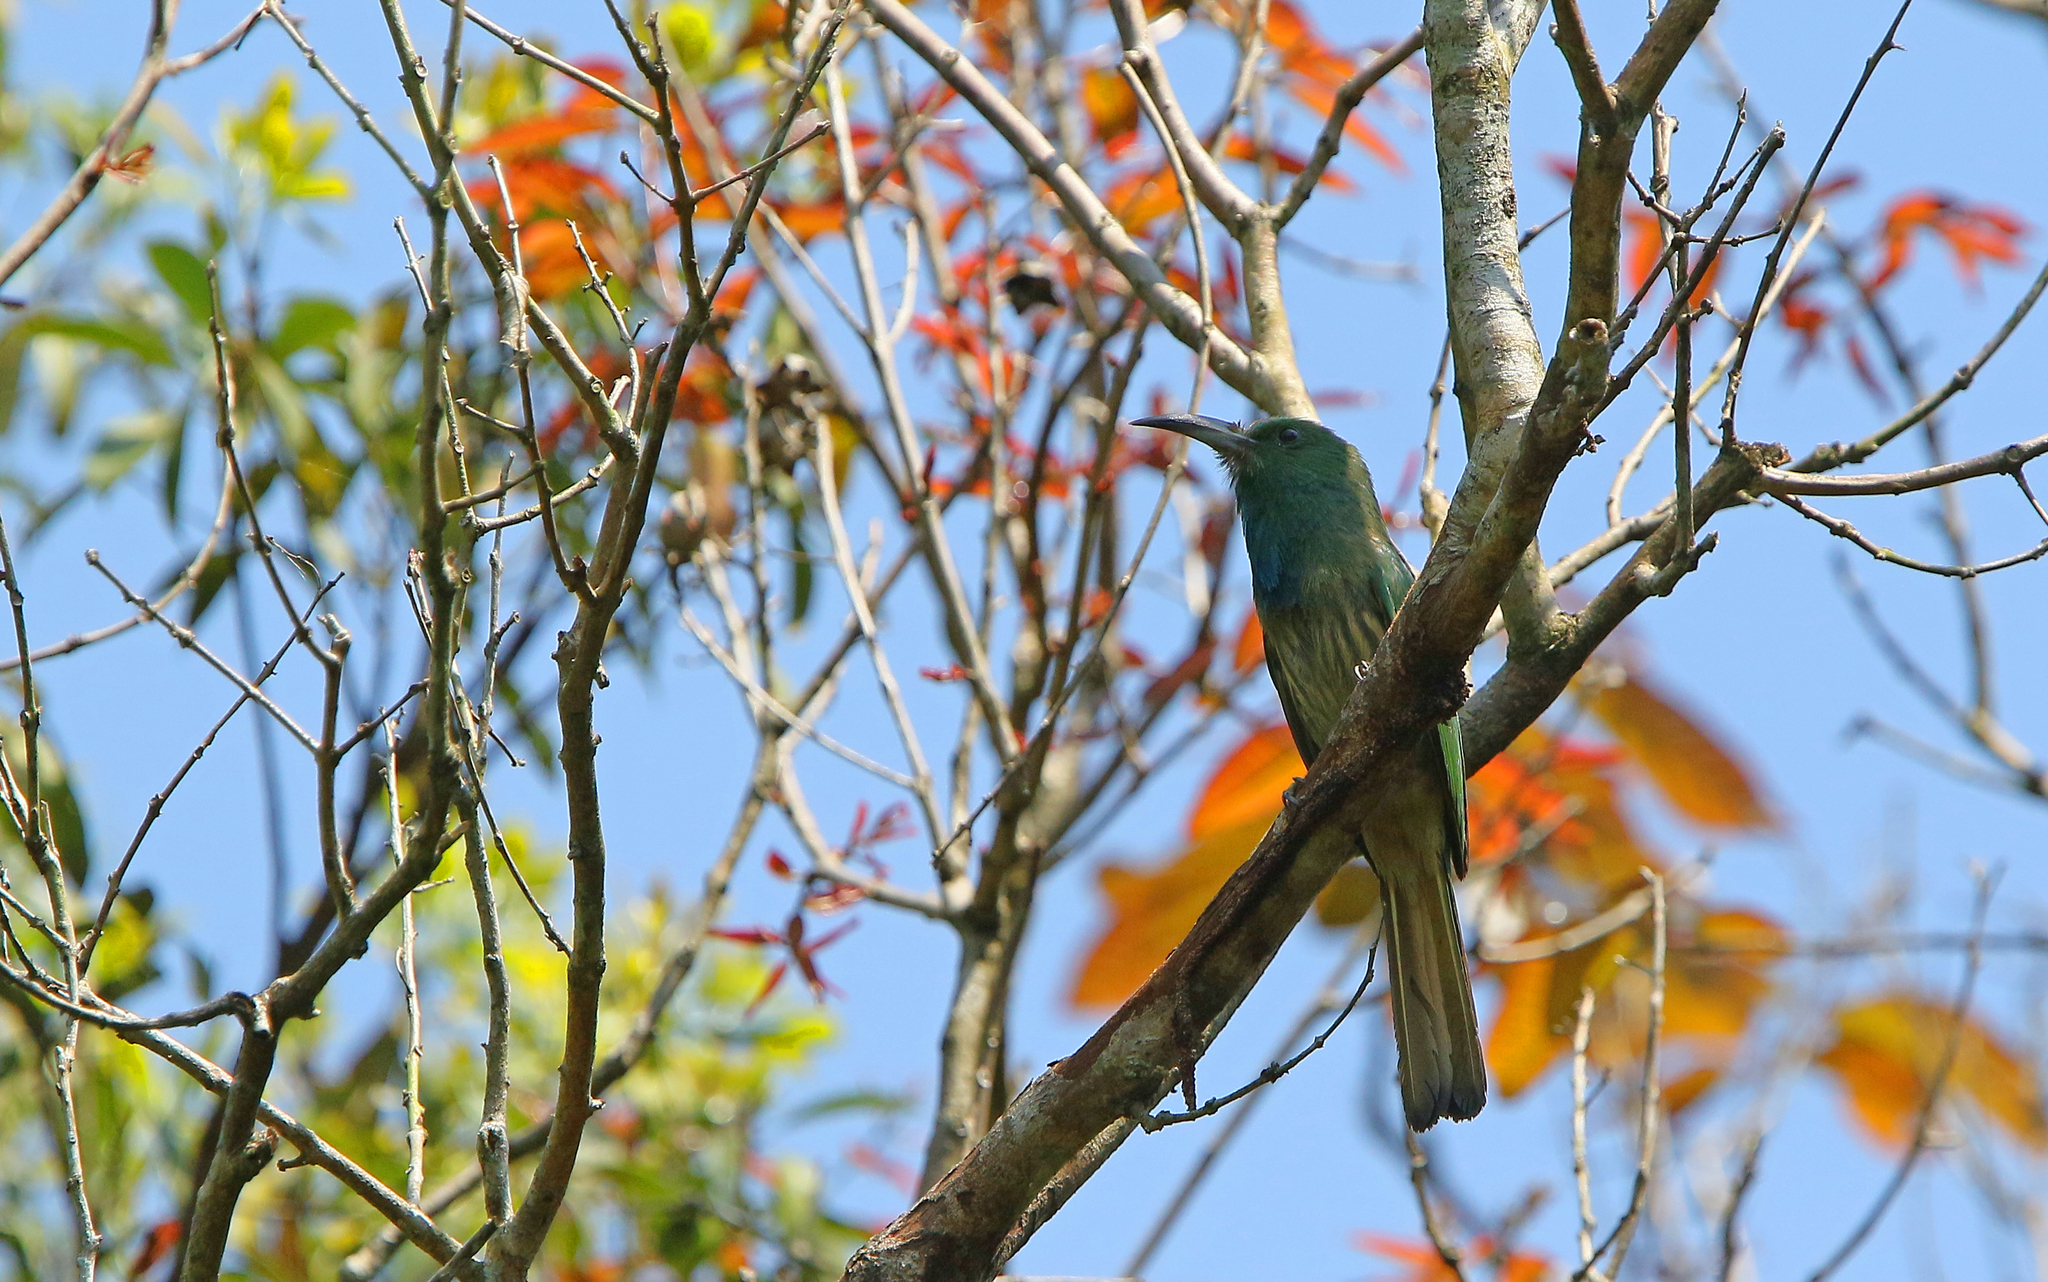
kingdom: Animalia
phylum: Chordata
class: Aves
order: Coraciiformes
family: Meropidae
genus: Nyctyornis
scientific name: Nyctyornis athertoni
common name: Blue-bearded bee-eater
